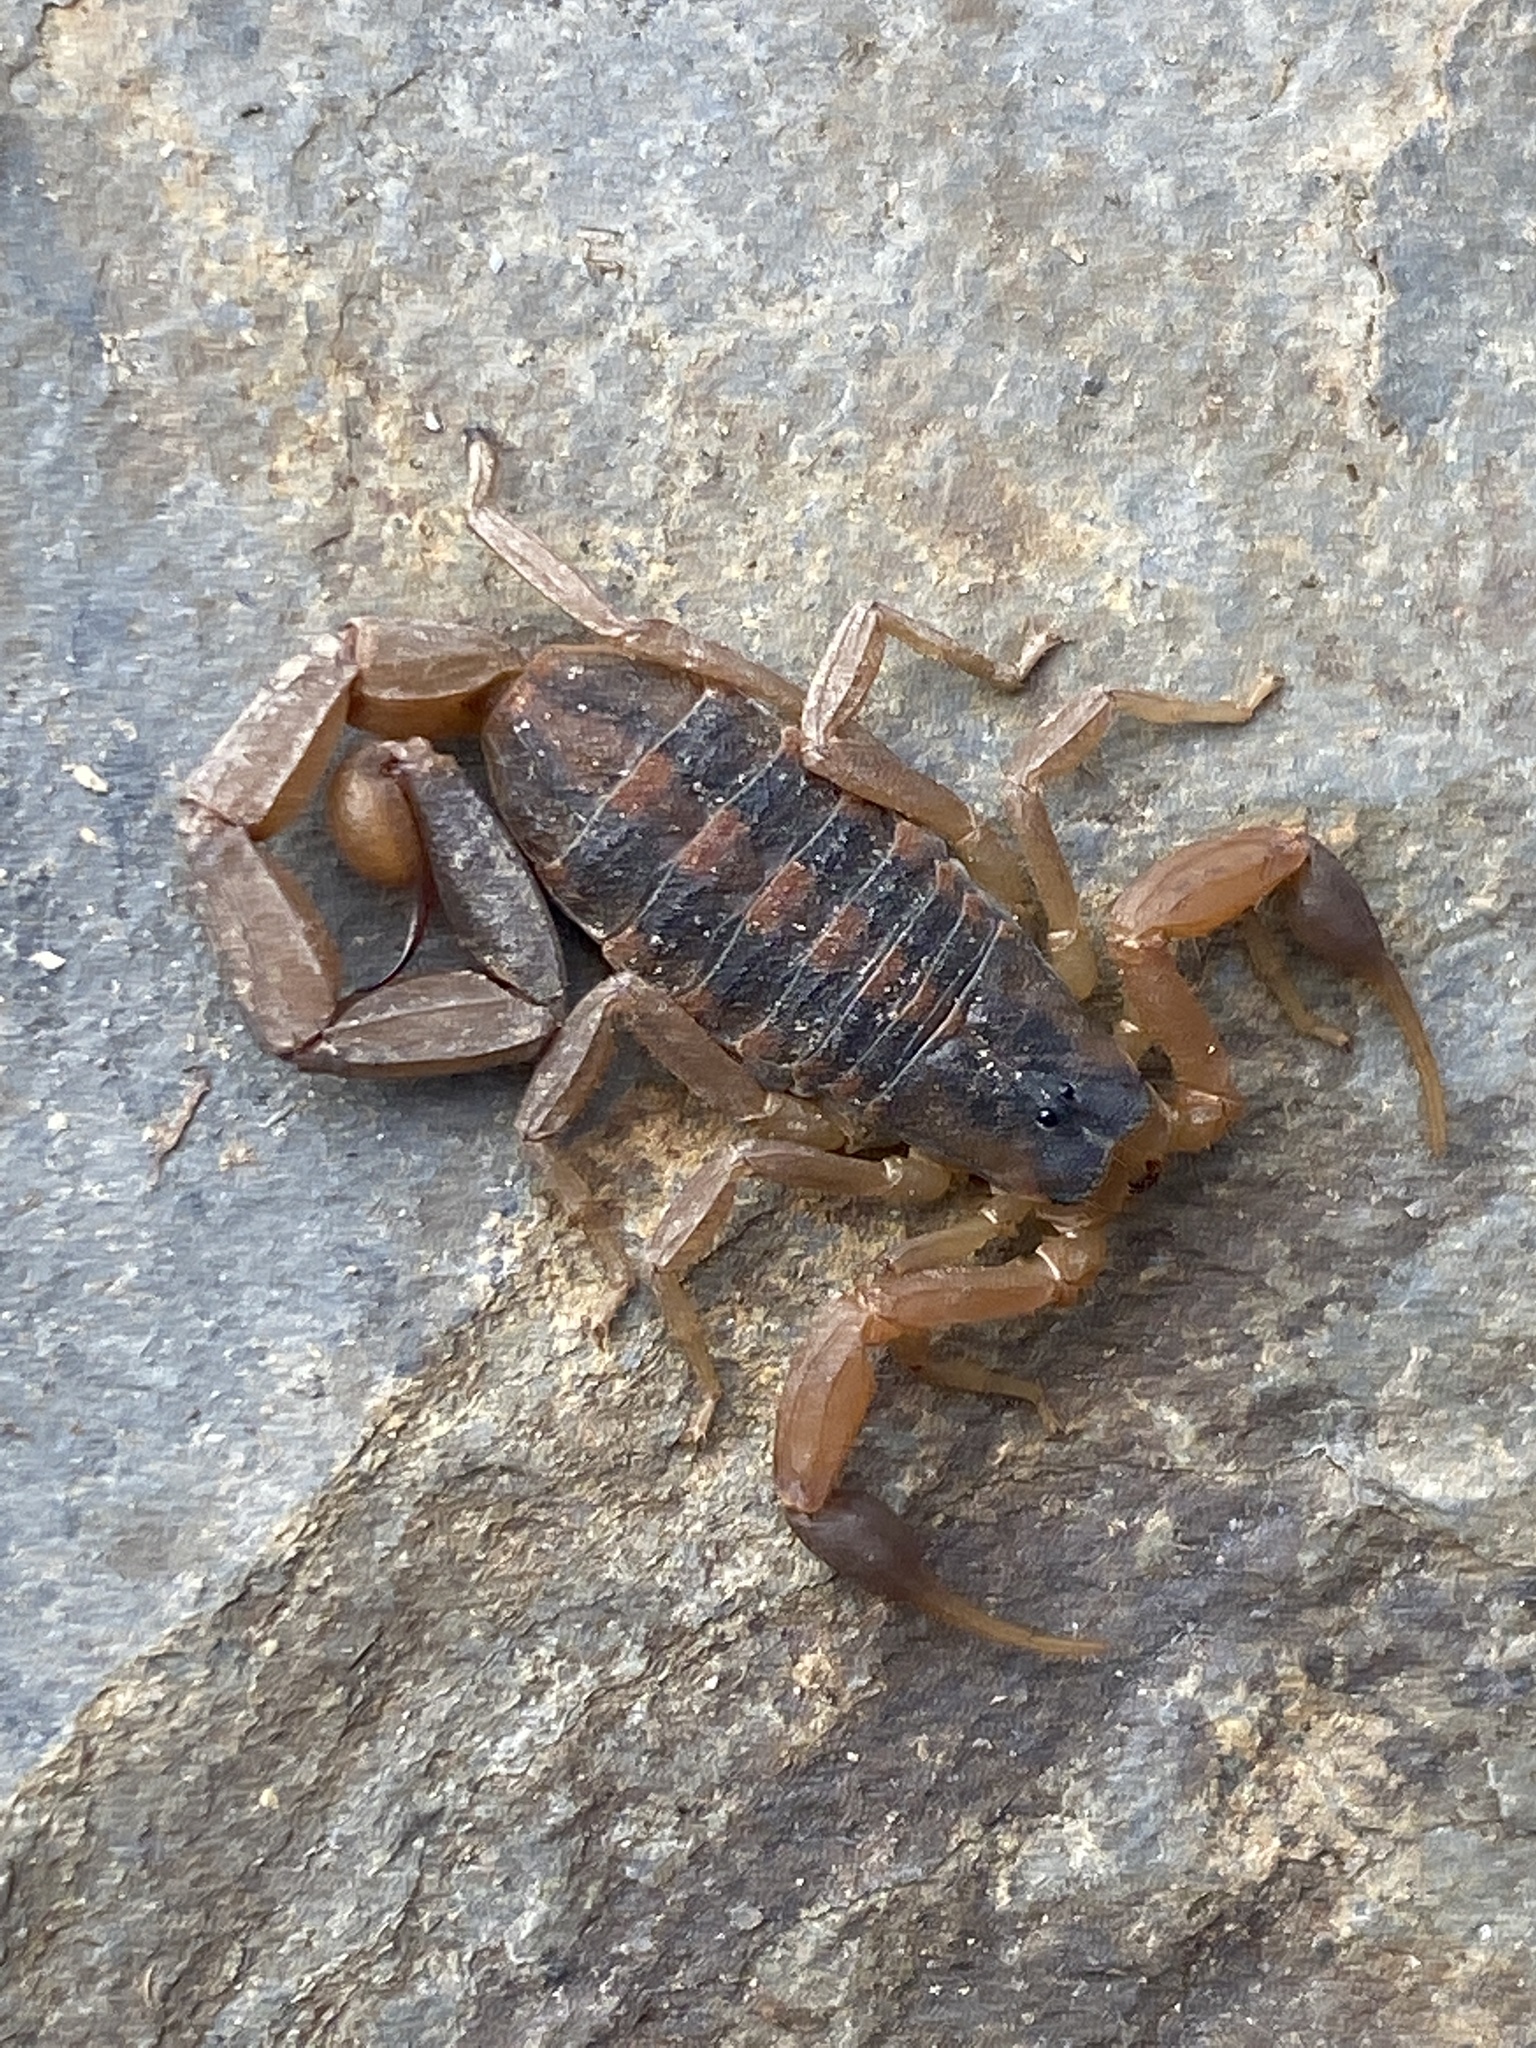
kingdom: Animalia
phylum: Arthropoda
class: Arachnida
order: Scorpiones
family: Buthidae
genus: Centruroides
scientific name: Centruroides vittatus
